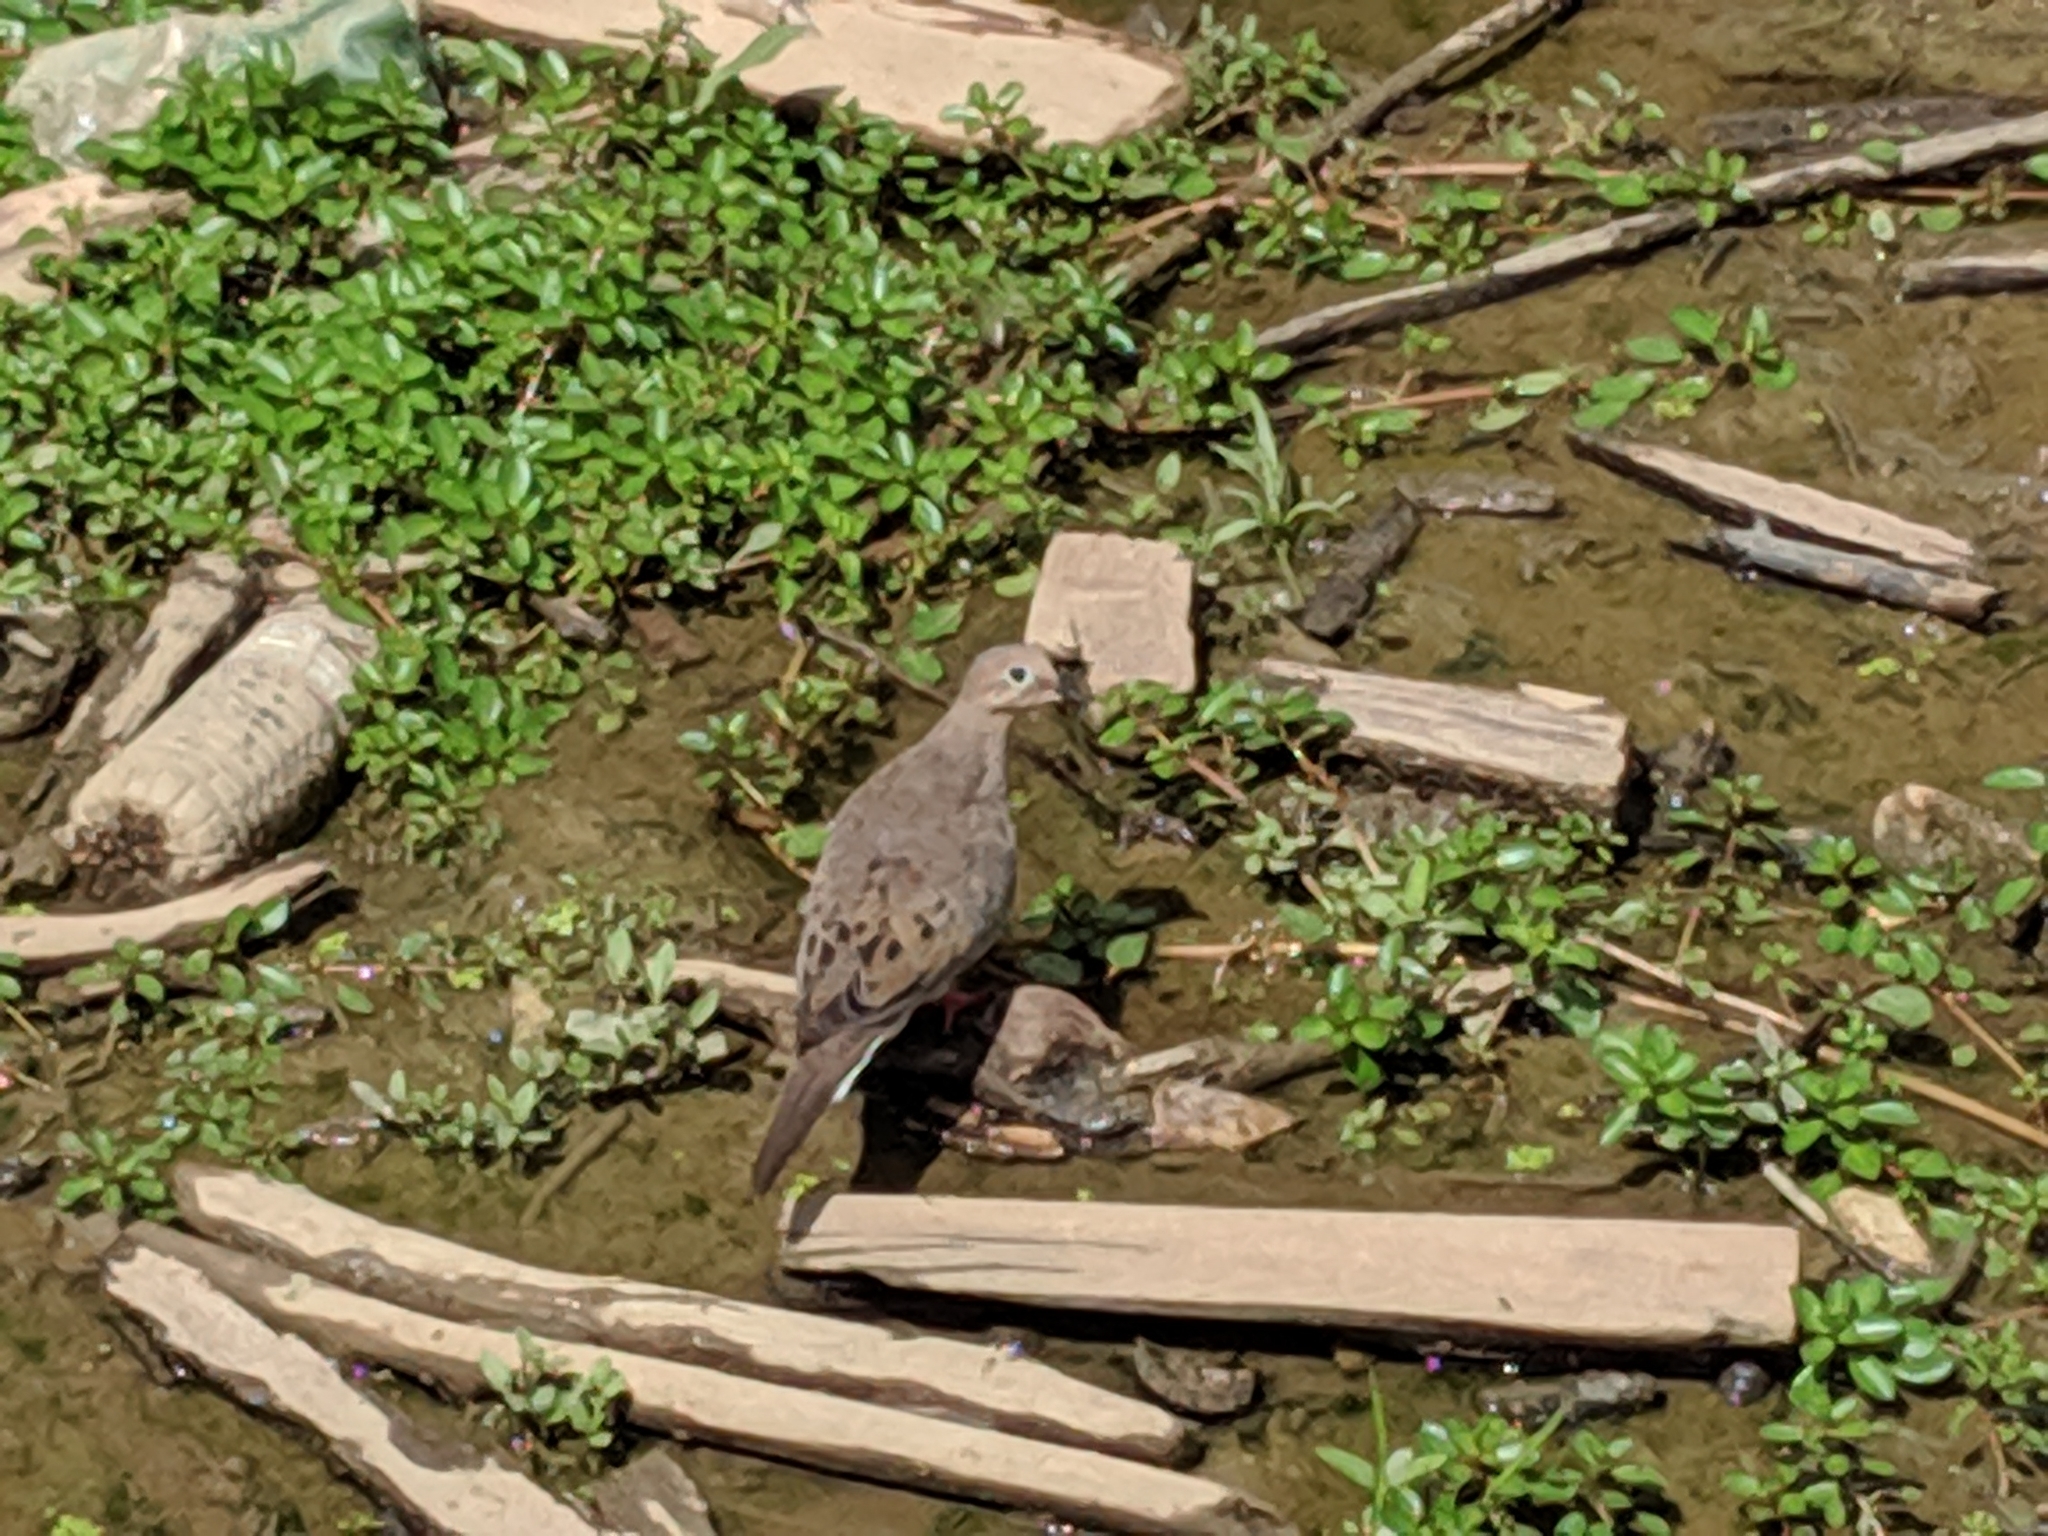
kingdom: Animalia
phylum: Chordata
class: Aves
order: Columbiformes
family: Columbidae
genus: Zenaida
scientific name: Zenaida macroura
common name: Mourning dove
